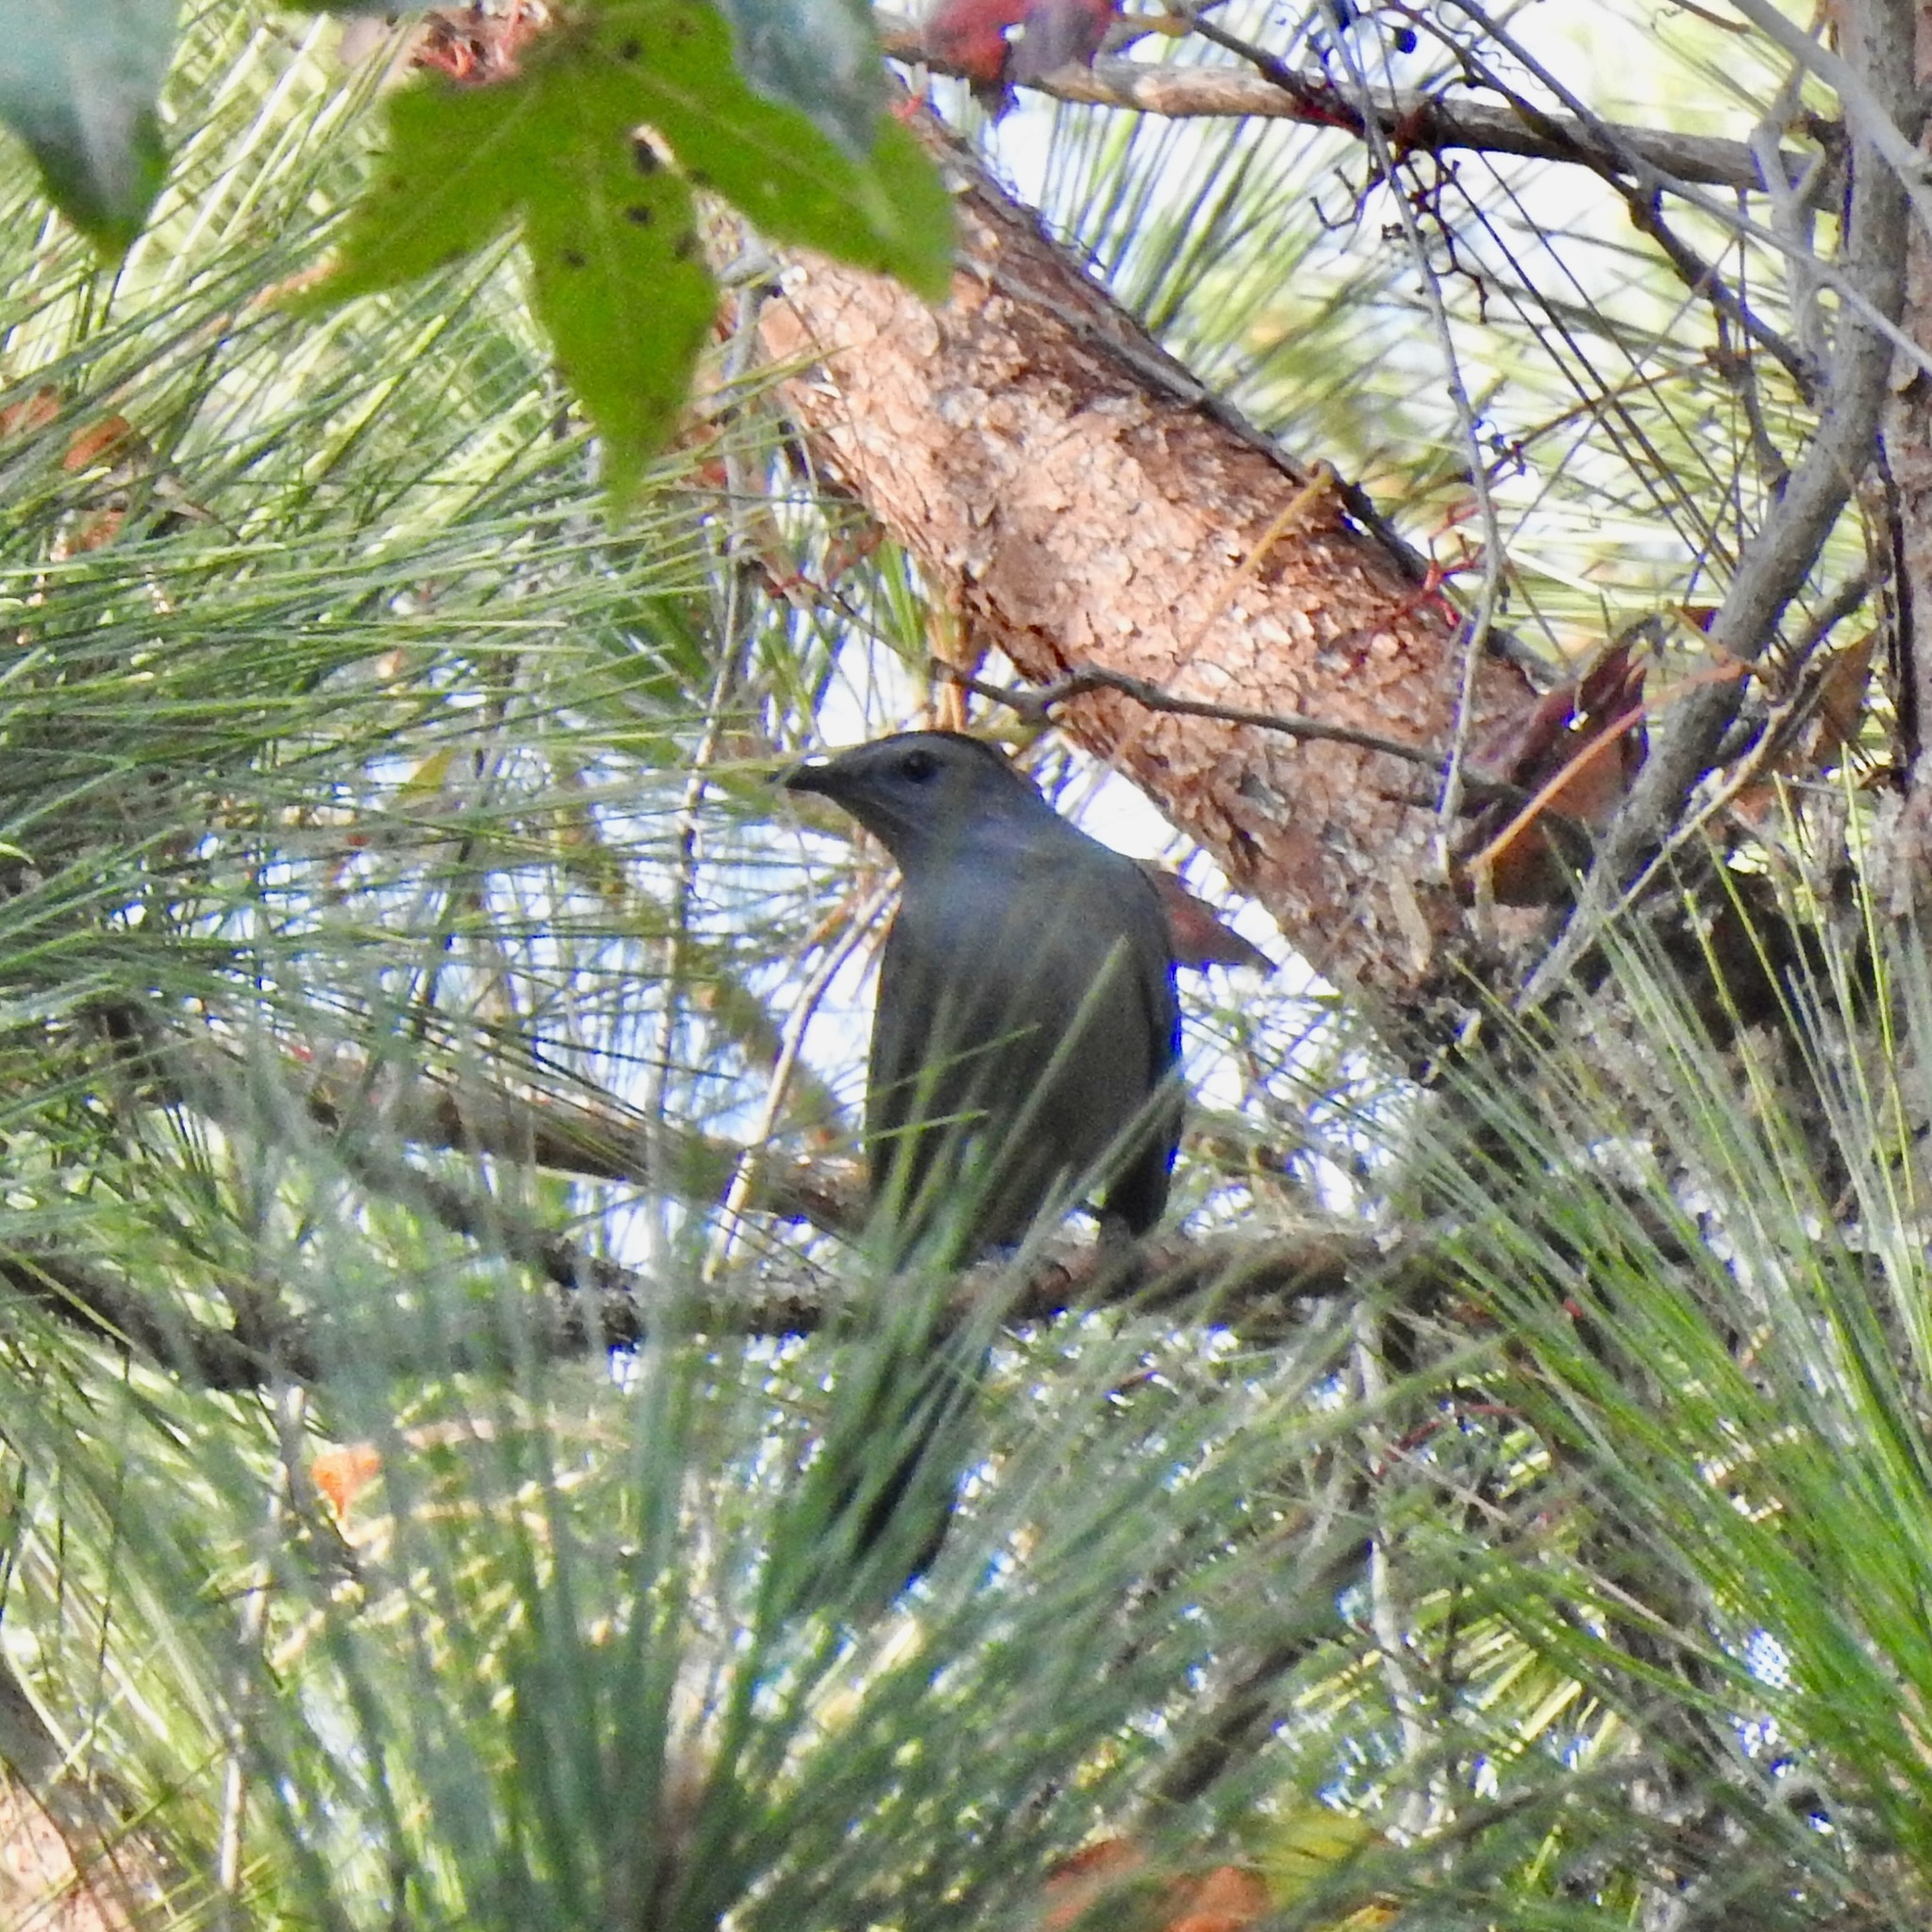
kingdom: Animalia
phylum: Chordata
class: Aves
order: Passeriformes
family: Mimidae
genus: Dumetella
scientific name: Dumetella carolinensis
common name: Gray catbird
